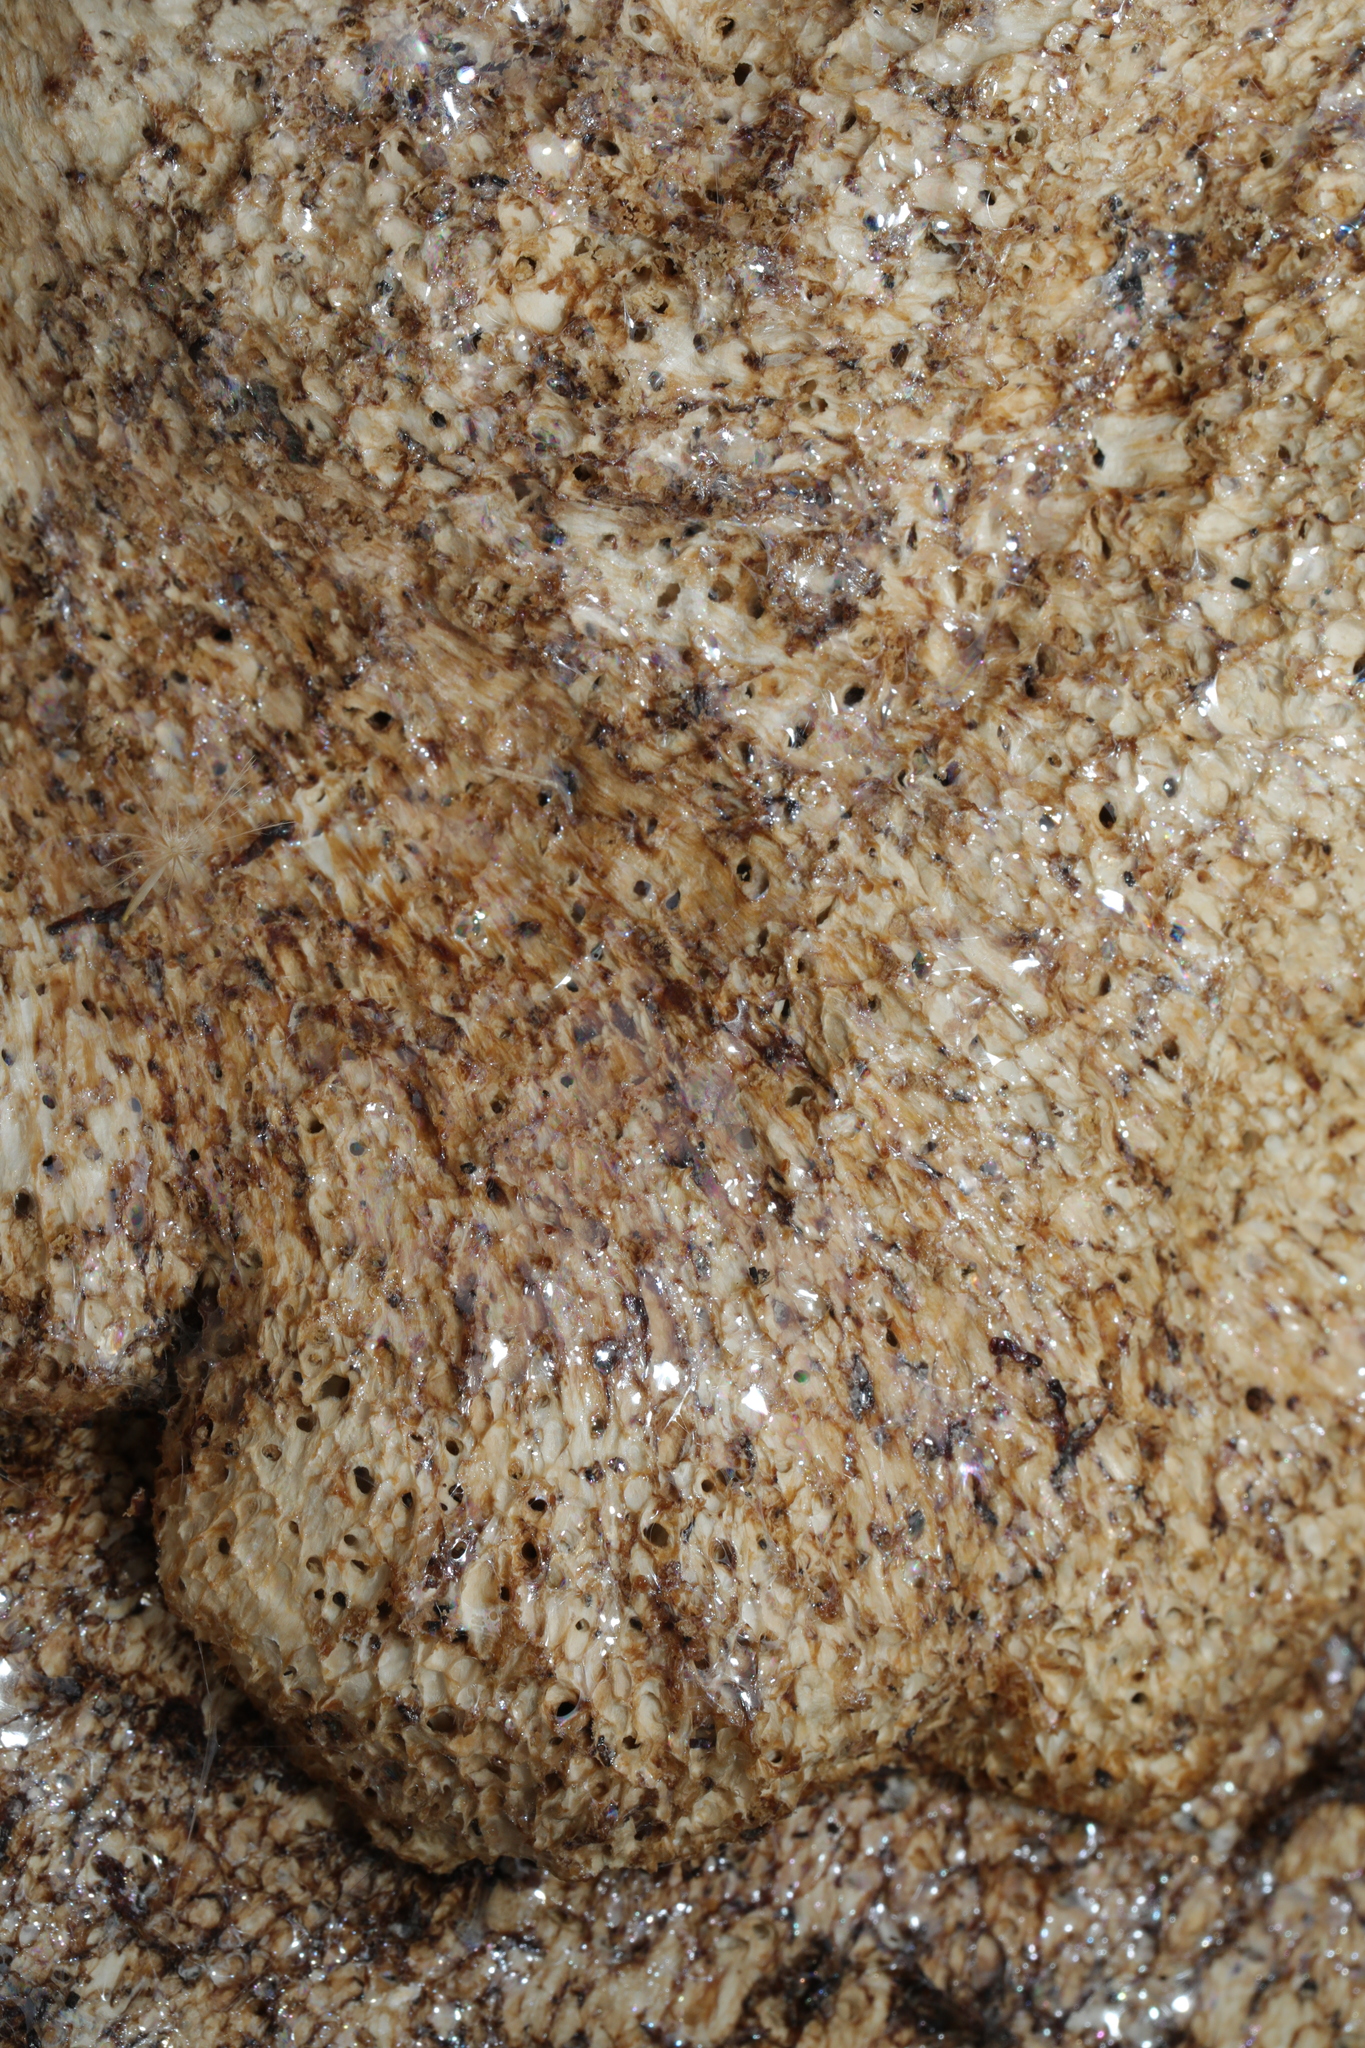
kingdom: Fungi
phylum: Basidiomycota
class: Agaricomycetes
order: Polyporales
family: Polyporaceae
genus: Cerioporus
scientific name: Cerioporus squamosus
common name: Dryad's saddle
